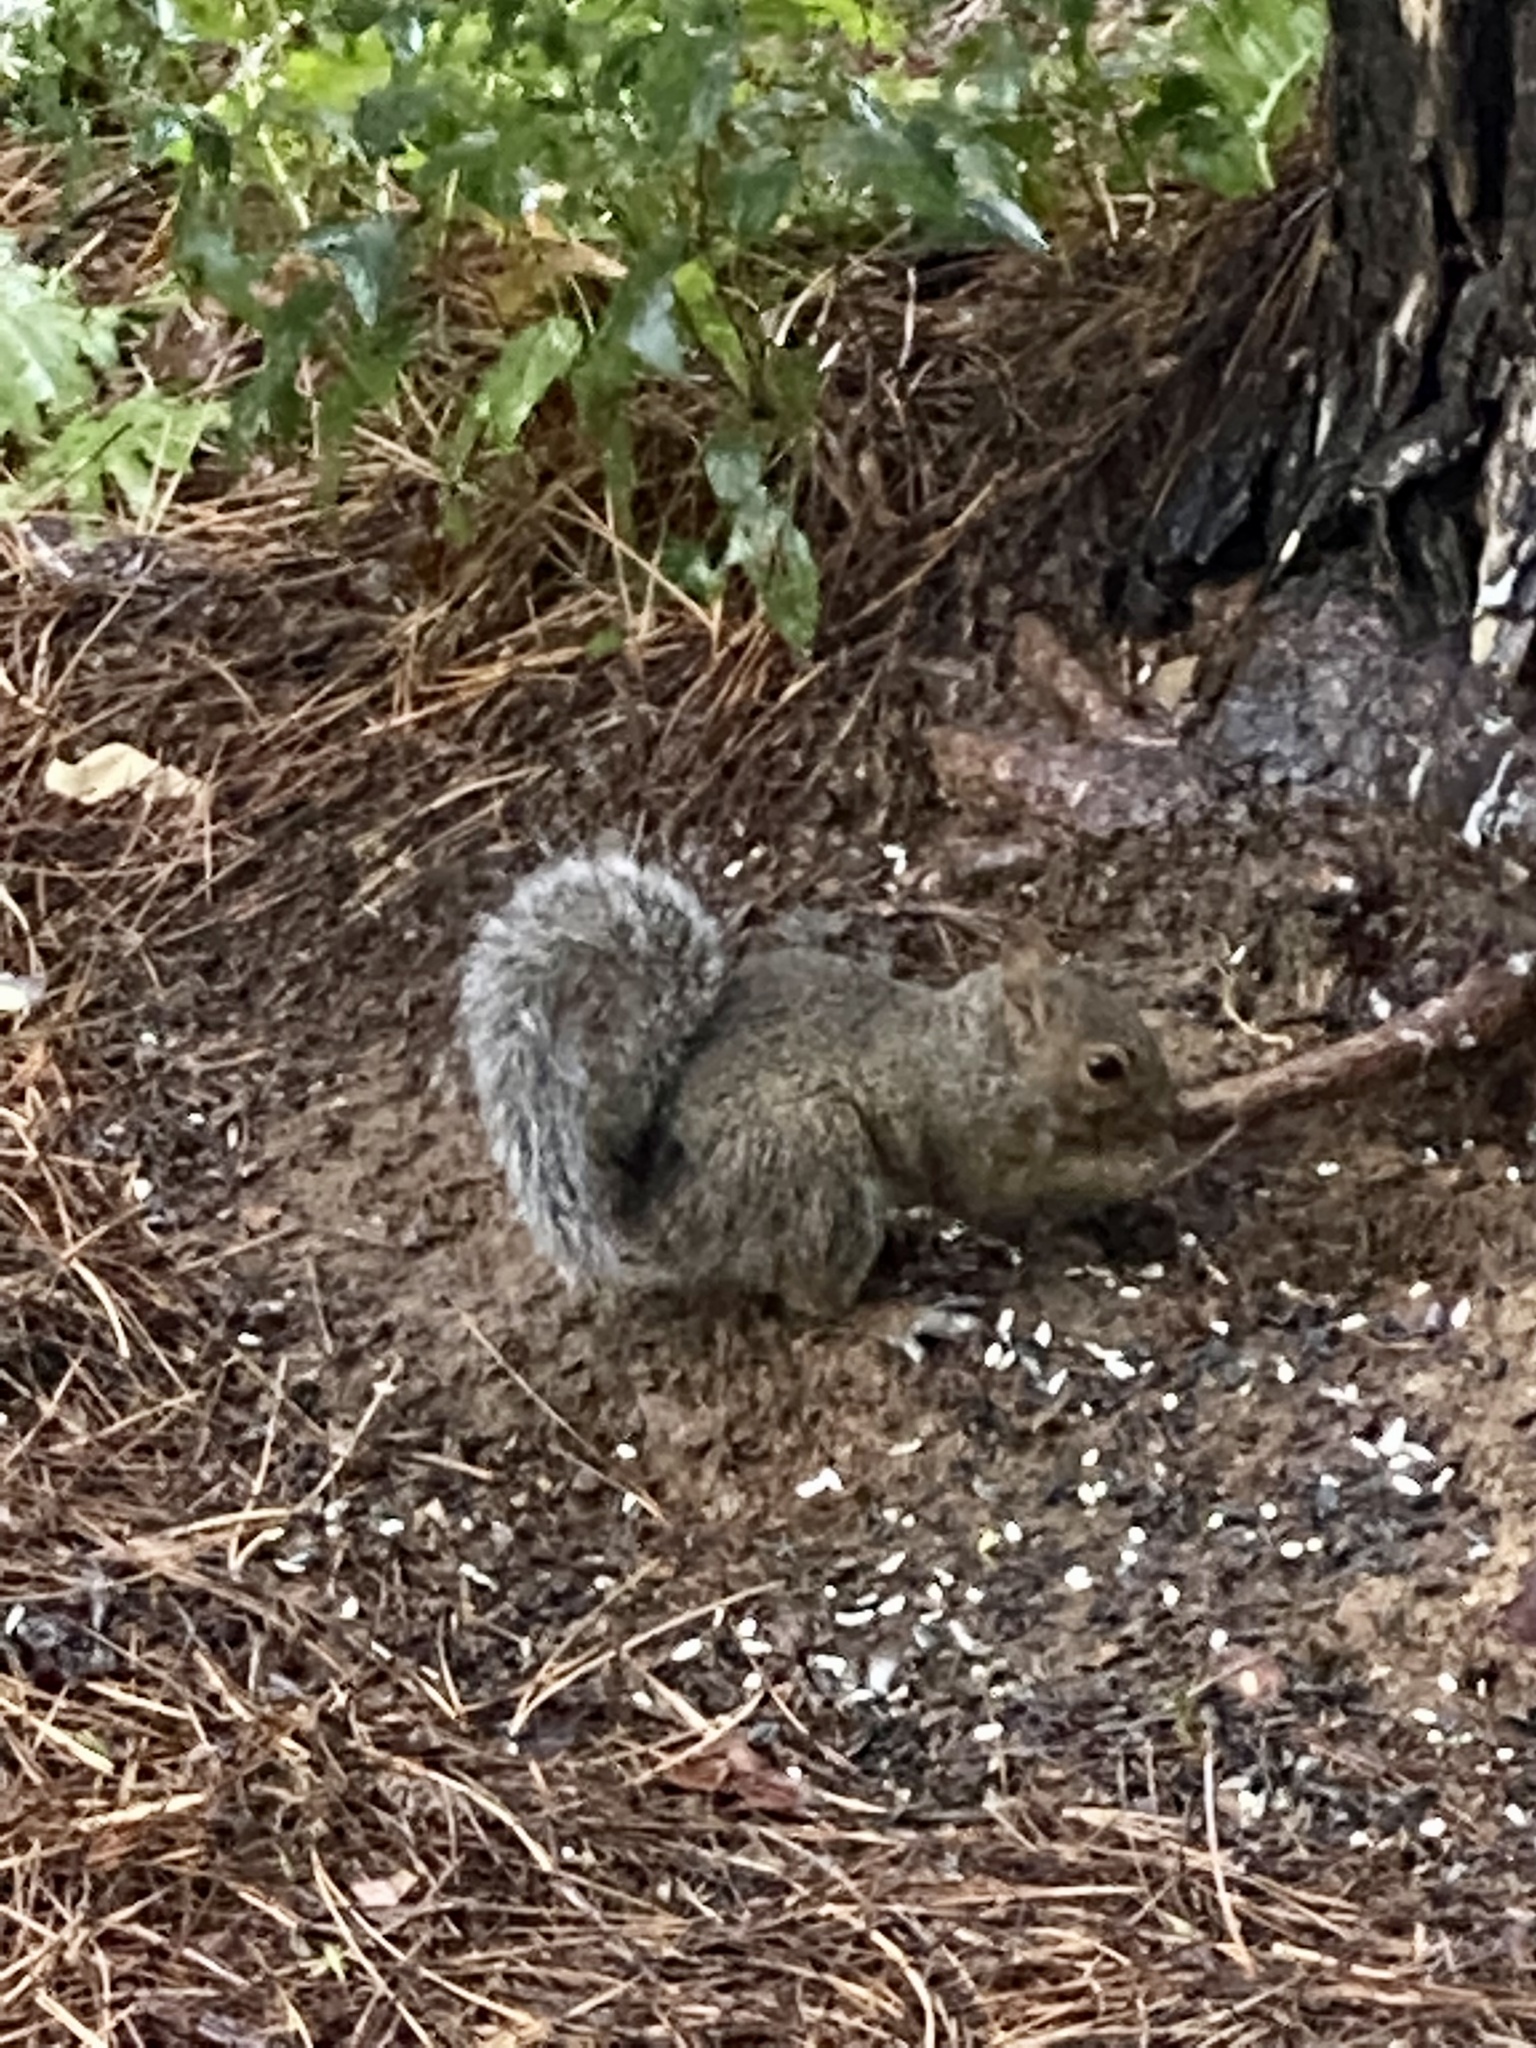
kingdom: Animalia
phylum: Chordata
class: Mammalia
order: Rodentia
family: Sciuridae
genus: Sciurus
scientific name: Sciurus carolinensis
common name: Eastern gray squirrel
